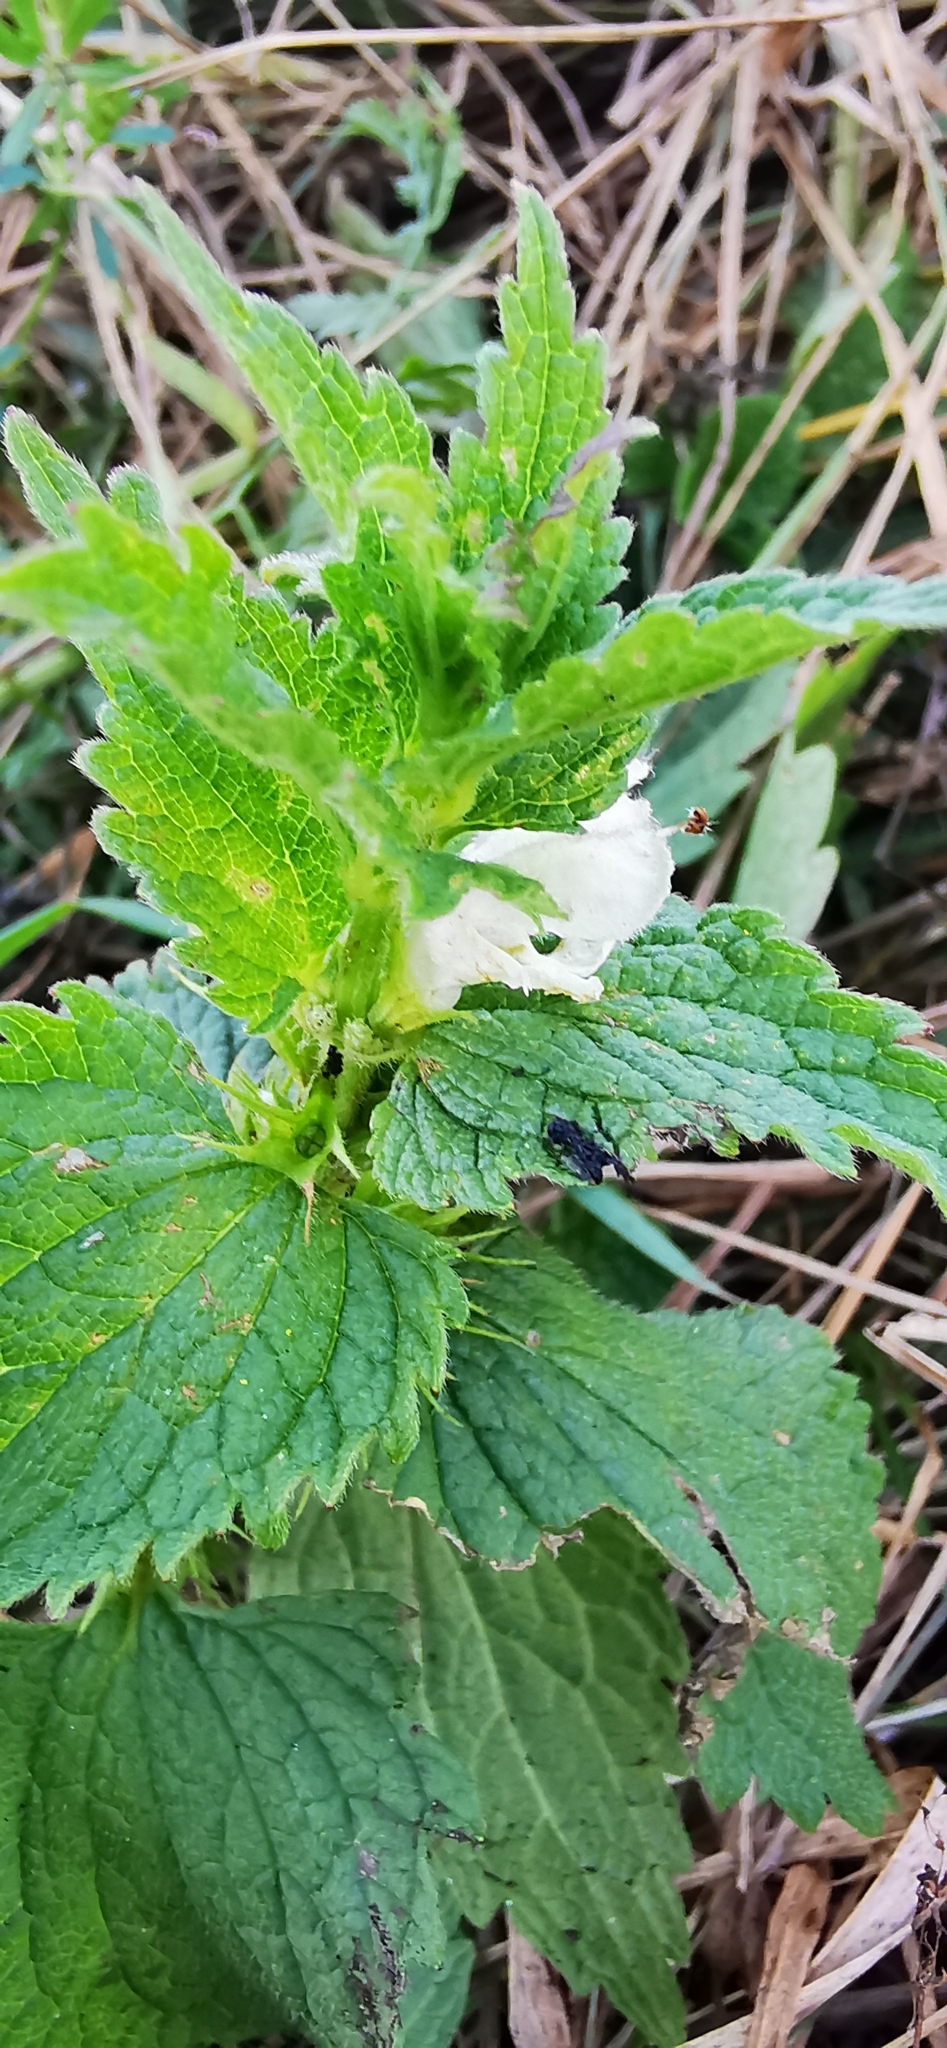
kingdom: Plantae
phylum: Tracheophyta
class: Magnoliopsida
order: Lamiales
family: Lamiaceae
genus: Lamium
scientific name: Lamium album
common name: White dead-nettle
